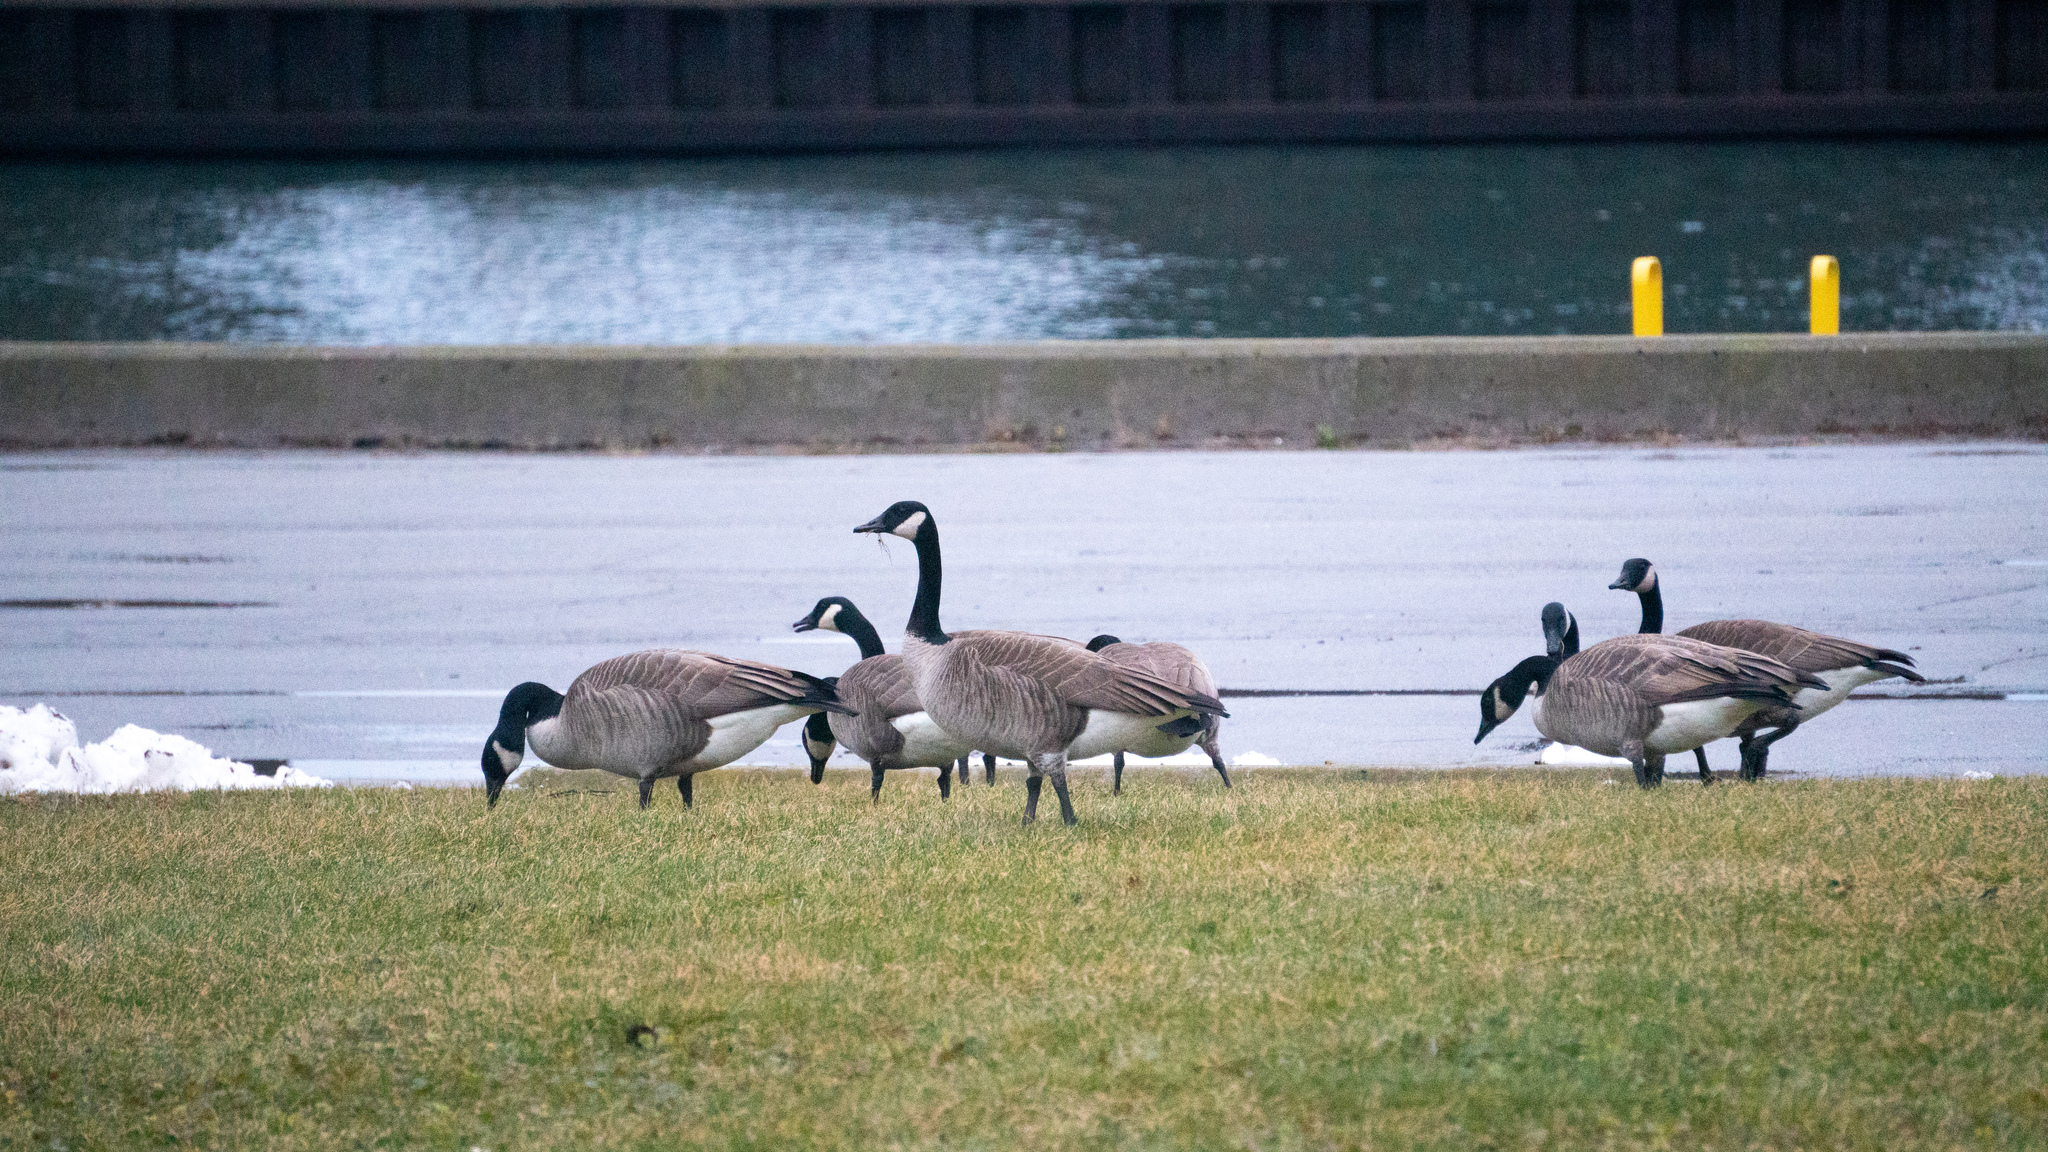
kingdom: Animalia
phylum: Chordata
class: Aves
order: Anseriformes
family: Anatidae
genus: Branta
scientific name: Branta canadensis
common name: Canada goose
